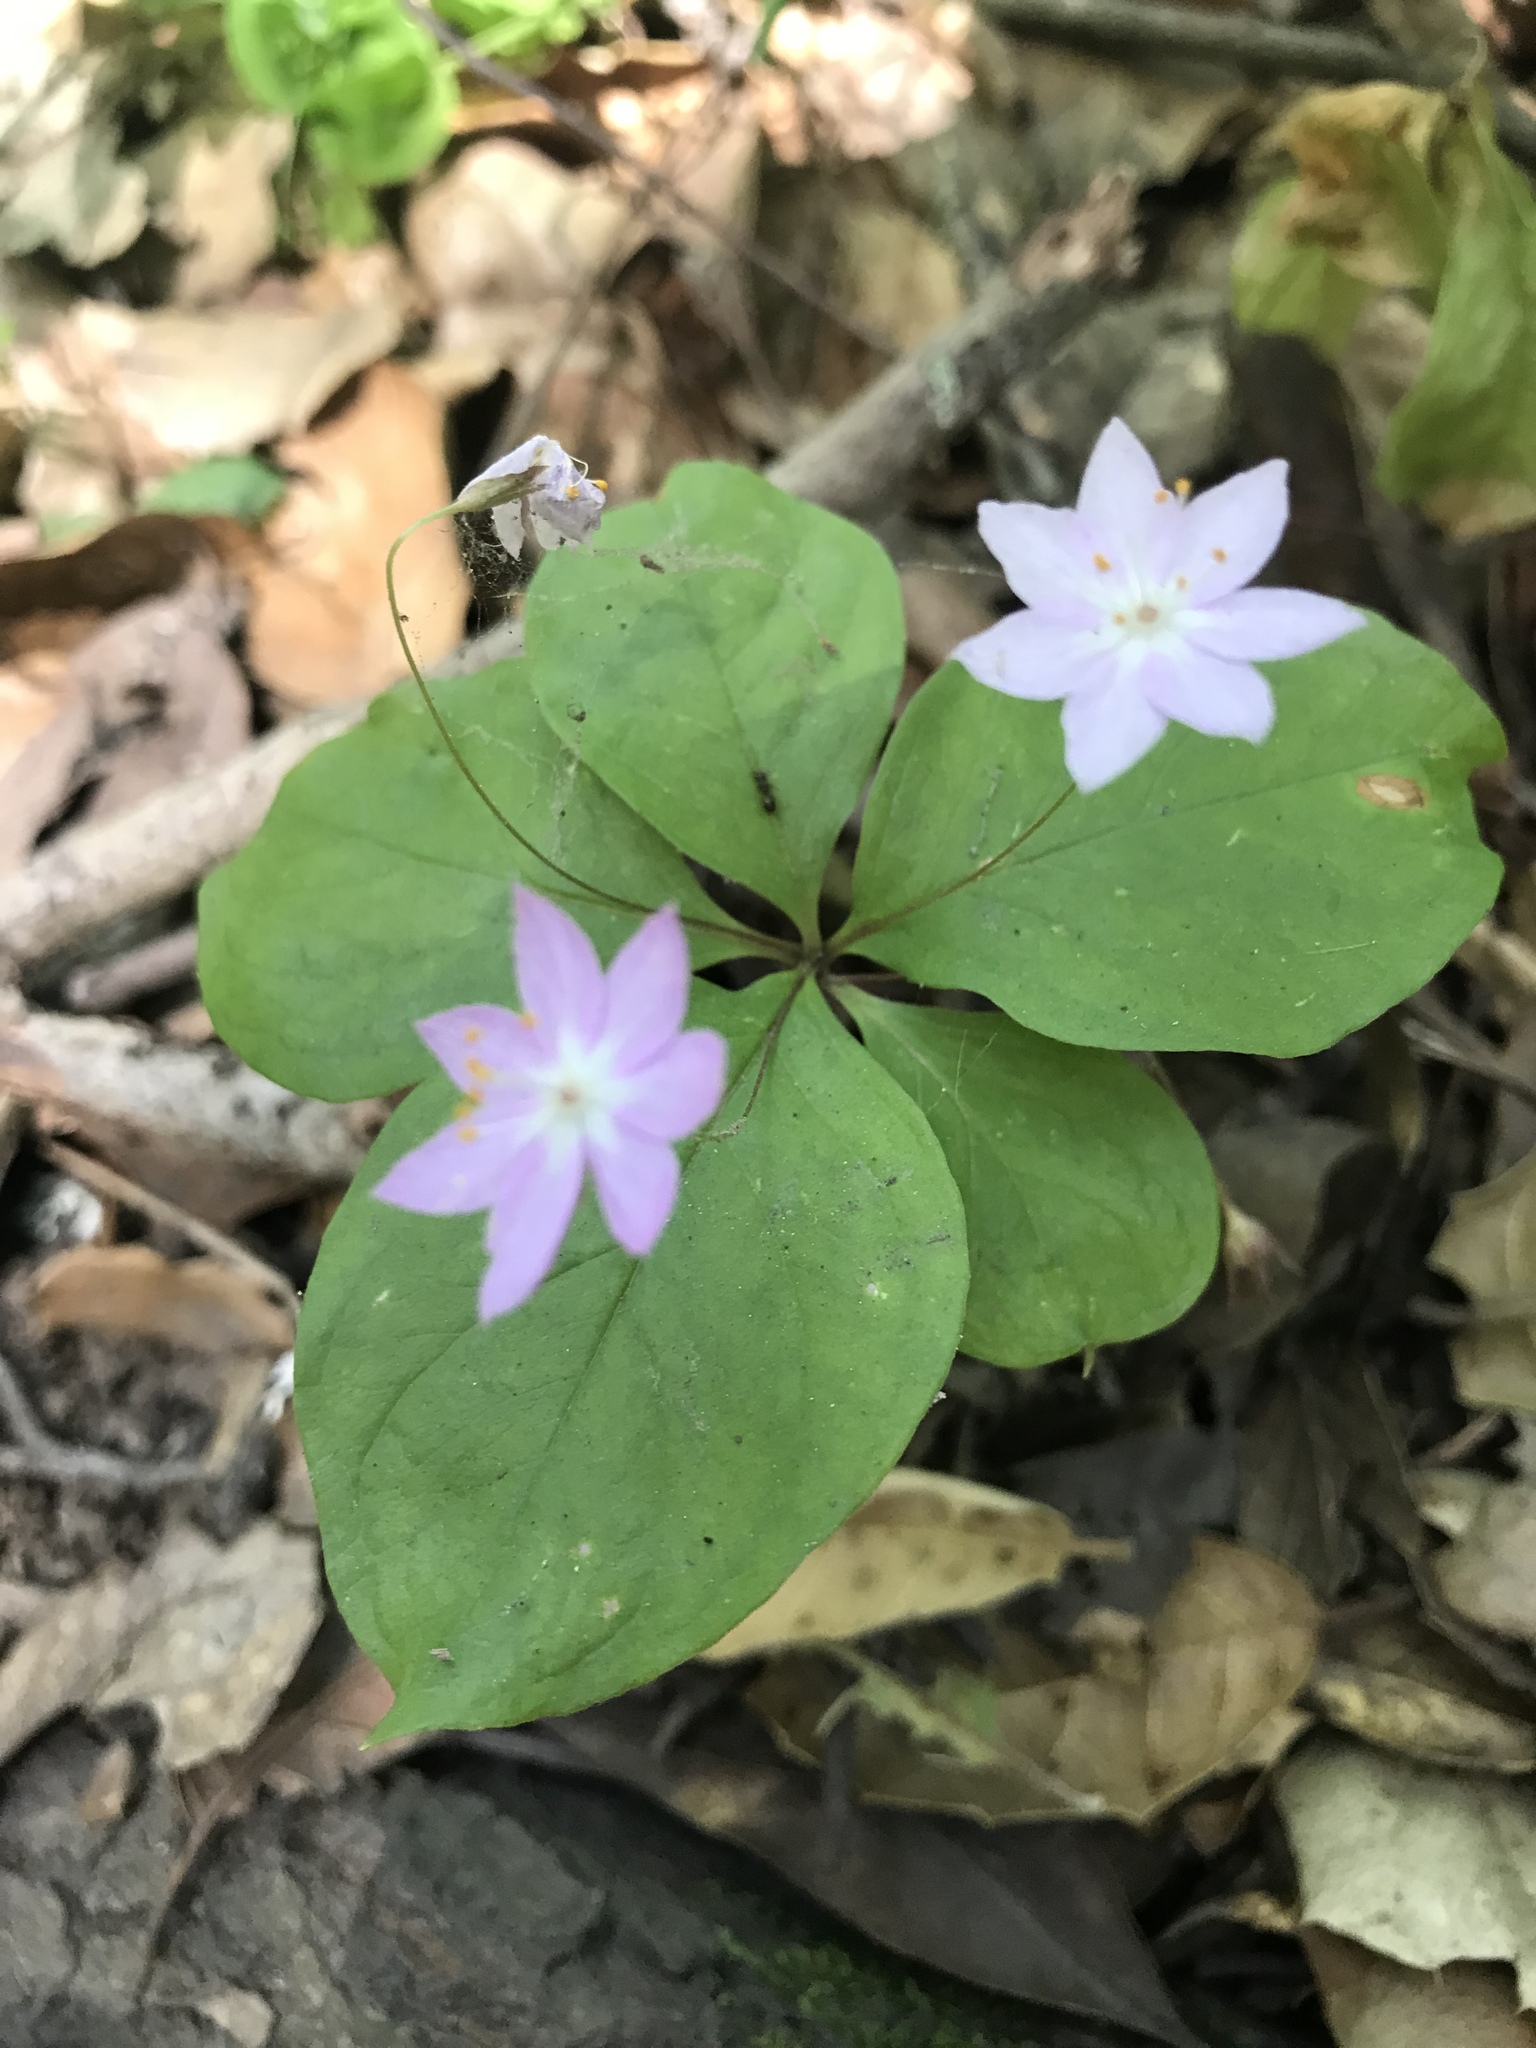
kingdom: Plantae
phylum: Tracheophyta
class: Magnoliopsida
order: Ericales
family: Primulaceae
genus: Lysimachia
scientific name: Lysimachia latifolia
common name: Pacific starflower
